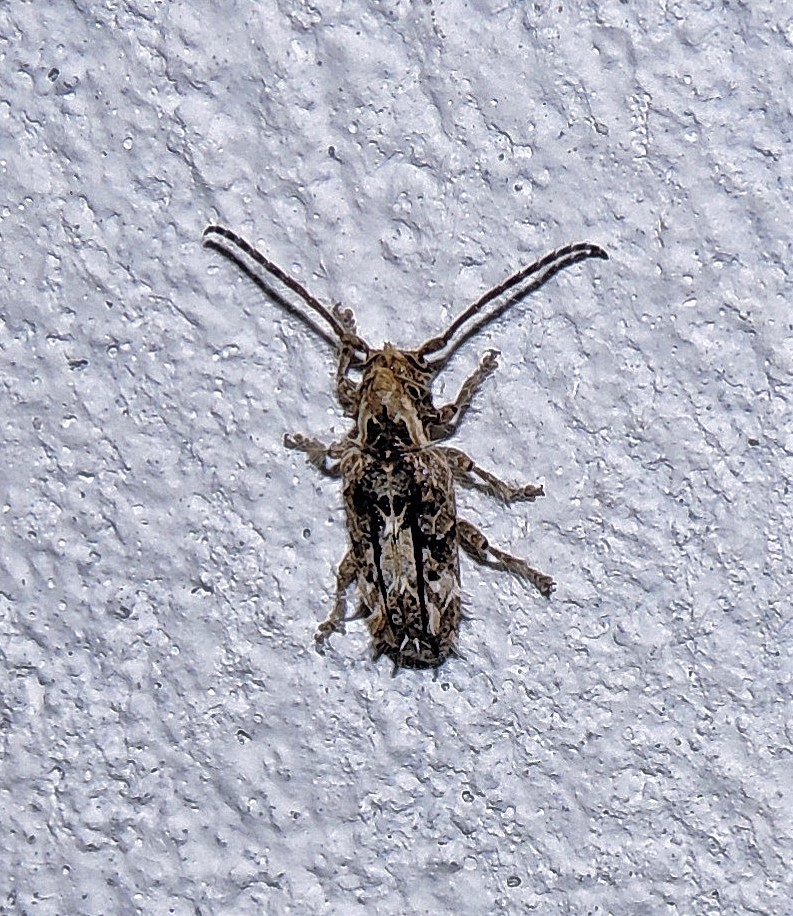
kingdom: Animalia
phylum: Arthropoda
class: Insecta
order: Coleoptera
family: Cerambycidae
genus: Desmiphora
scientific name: Desmiphora hirticollis
